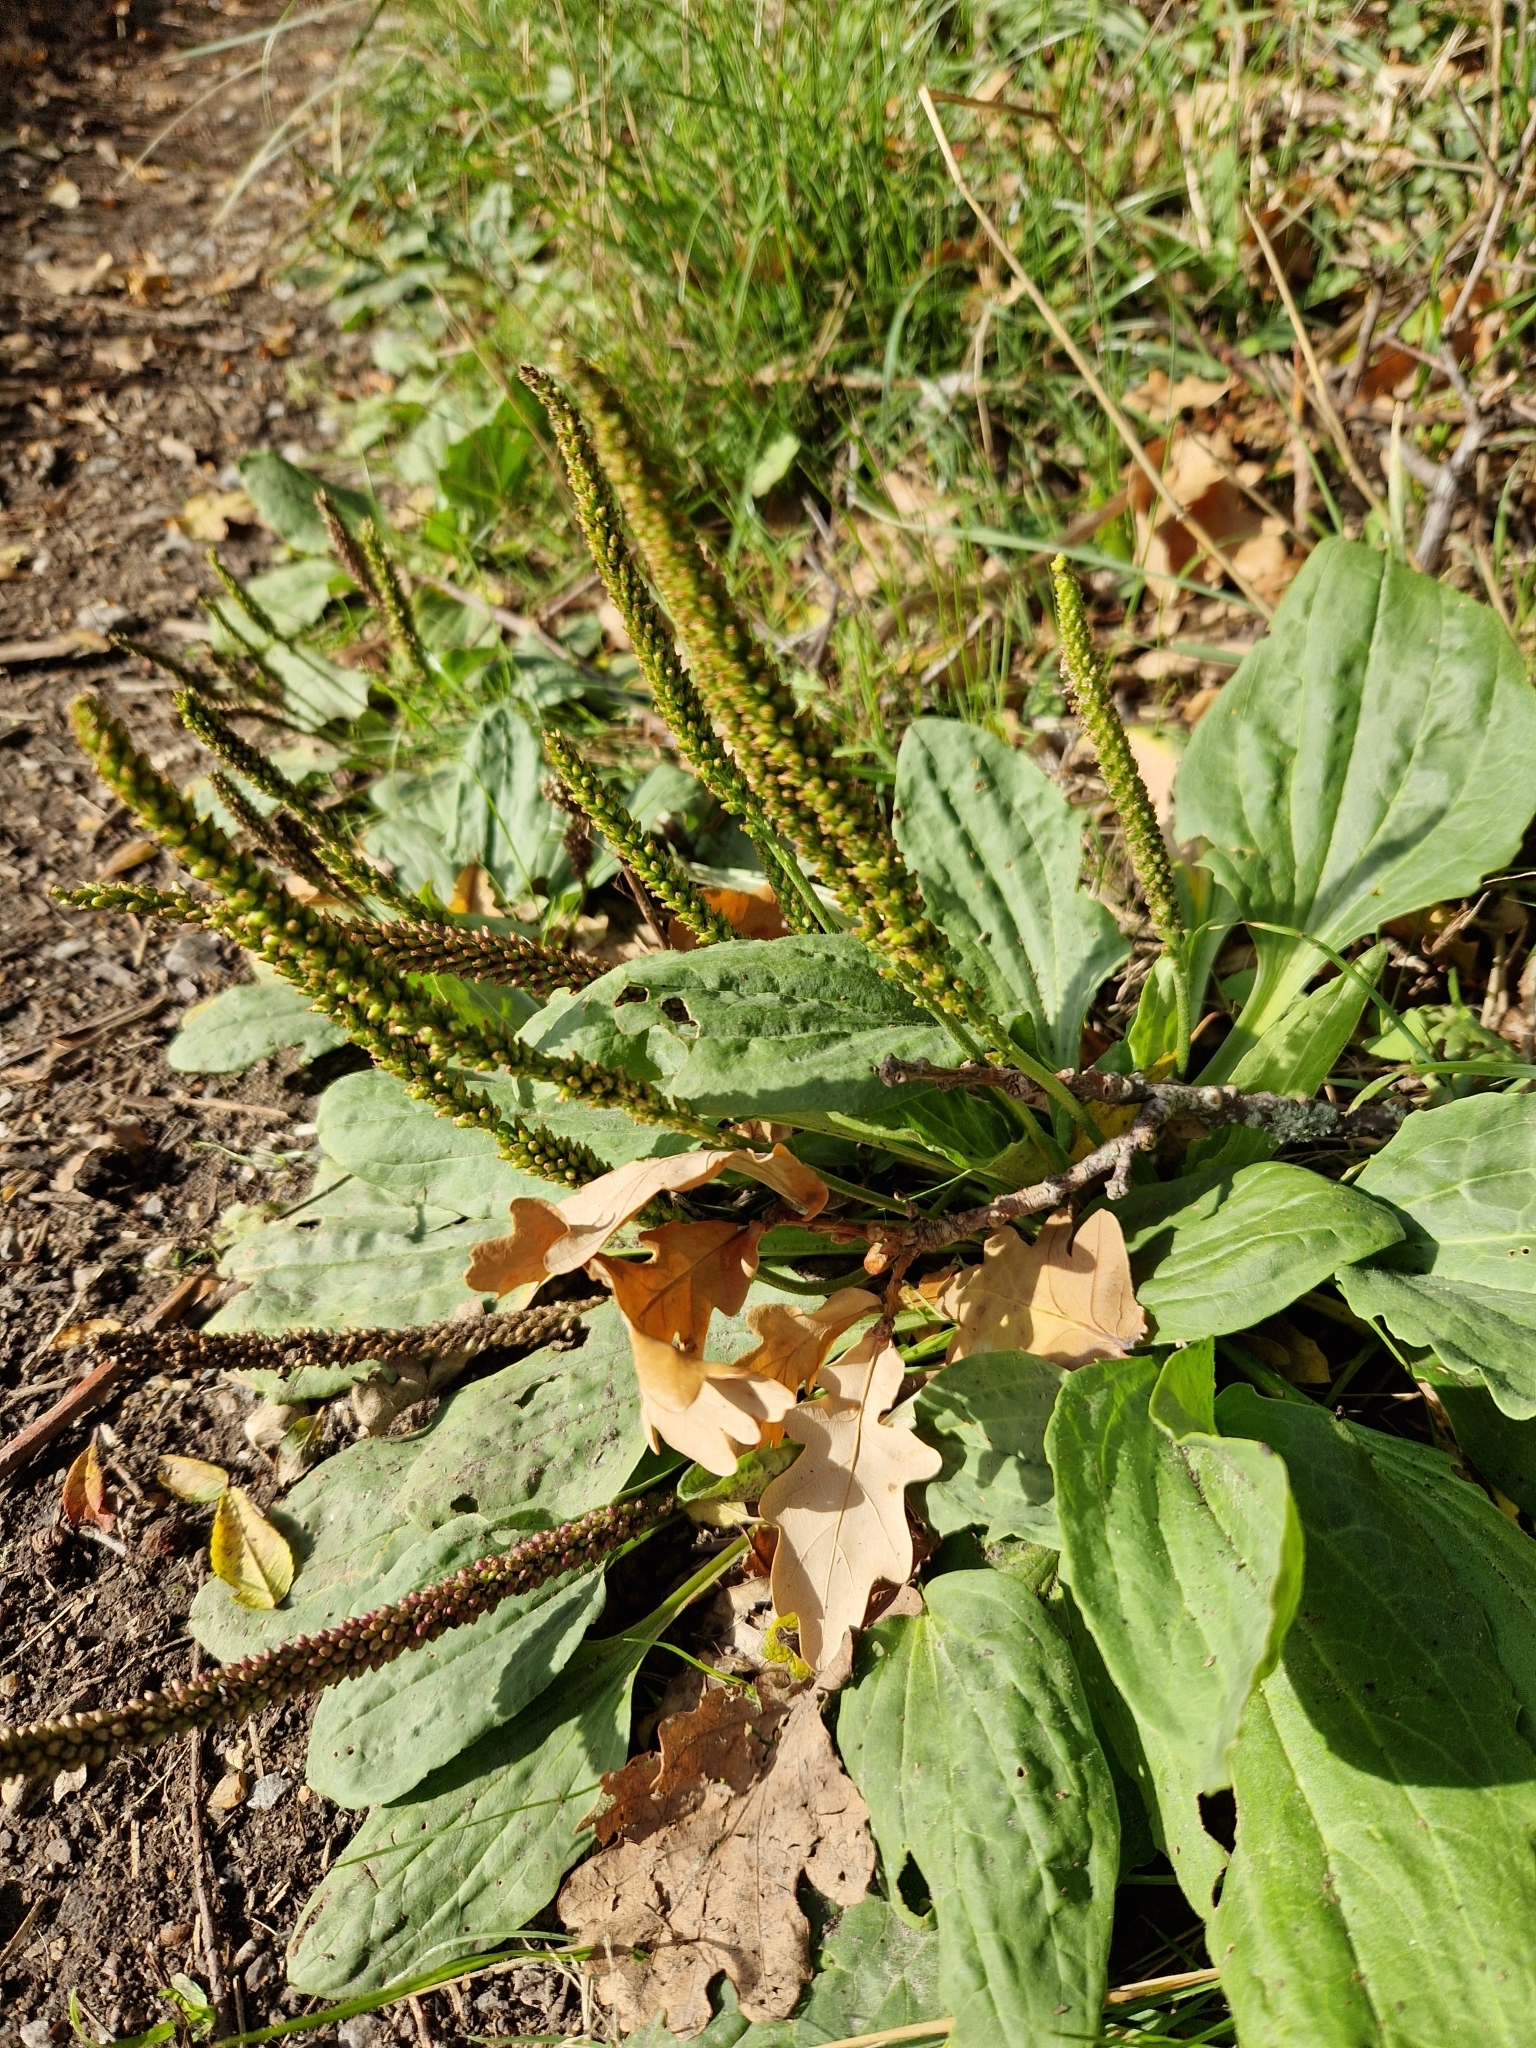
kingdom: Plantae
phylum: Tracheophyta
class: Magnoliopsida
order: Lamiales
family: Plantaginaceae
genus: Plantago
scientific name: Plantago major
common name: Common plantain
